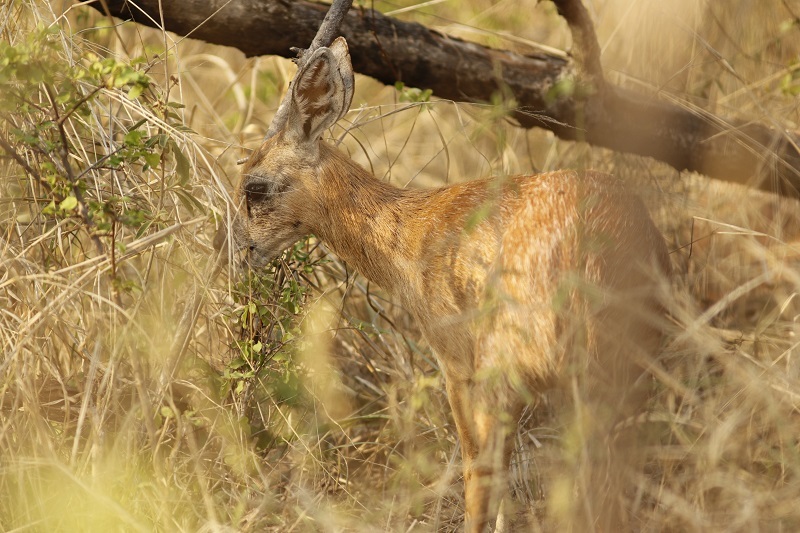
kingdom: Animalia
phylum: Chordata
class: Mammalia
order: Artiodactyla
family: Bovidae
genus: Raphicerus
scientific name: Raphicerus sharpei
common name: Sharpe's grysbok
